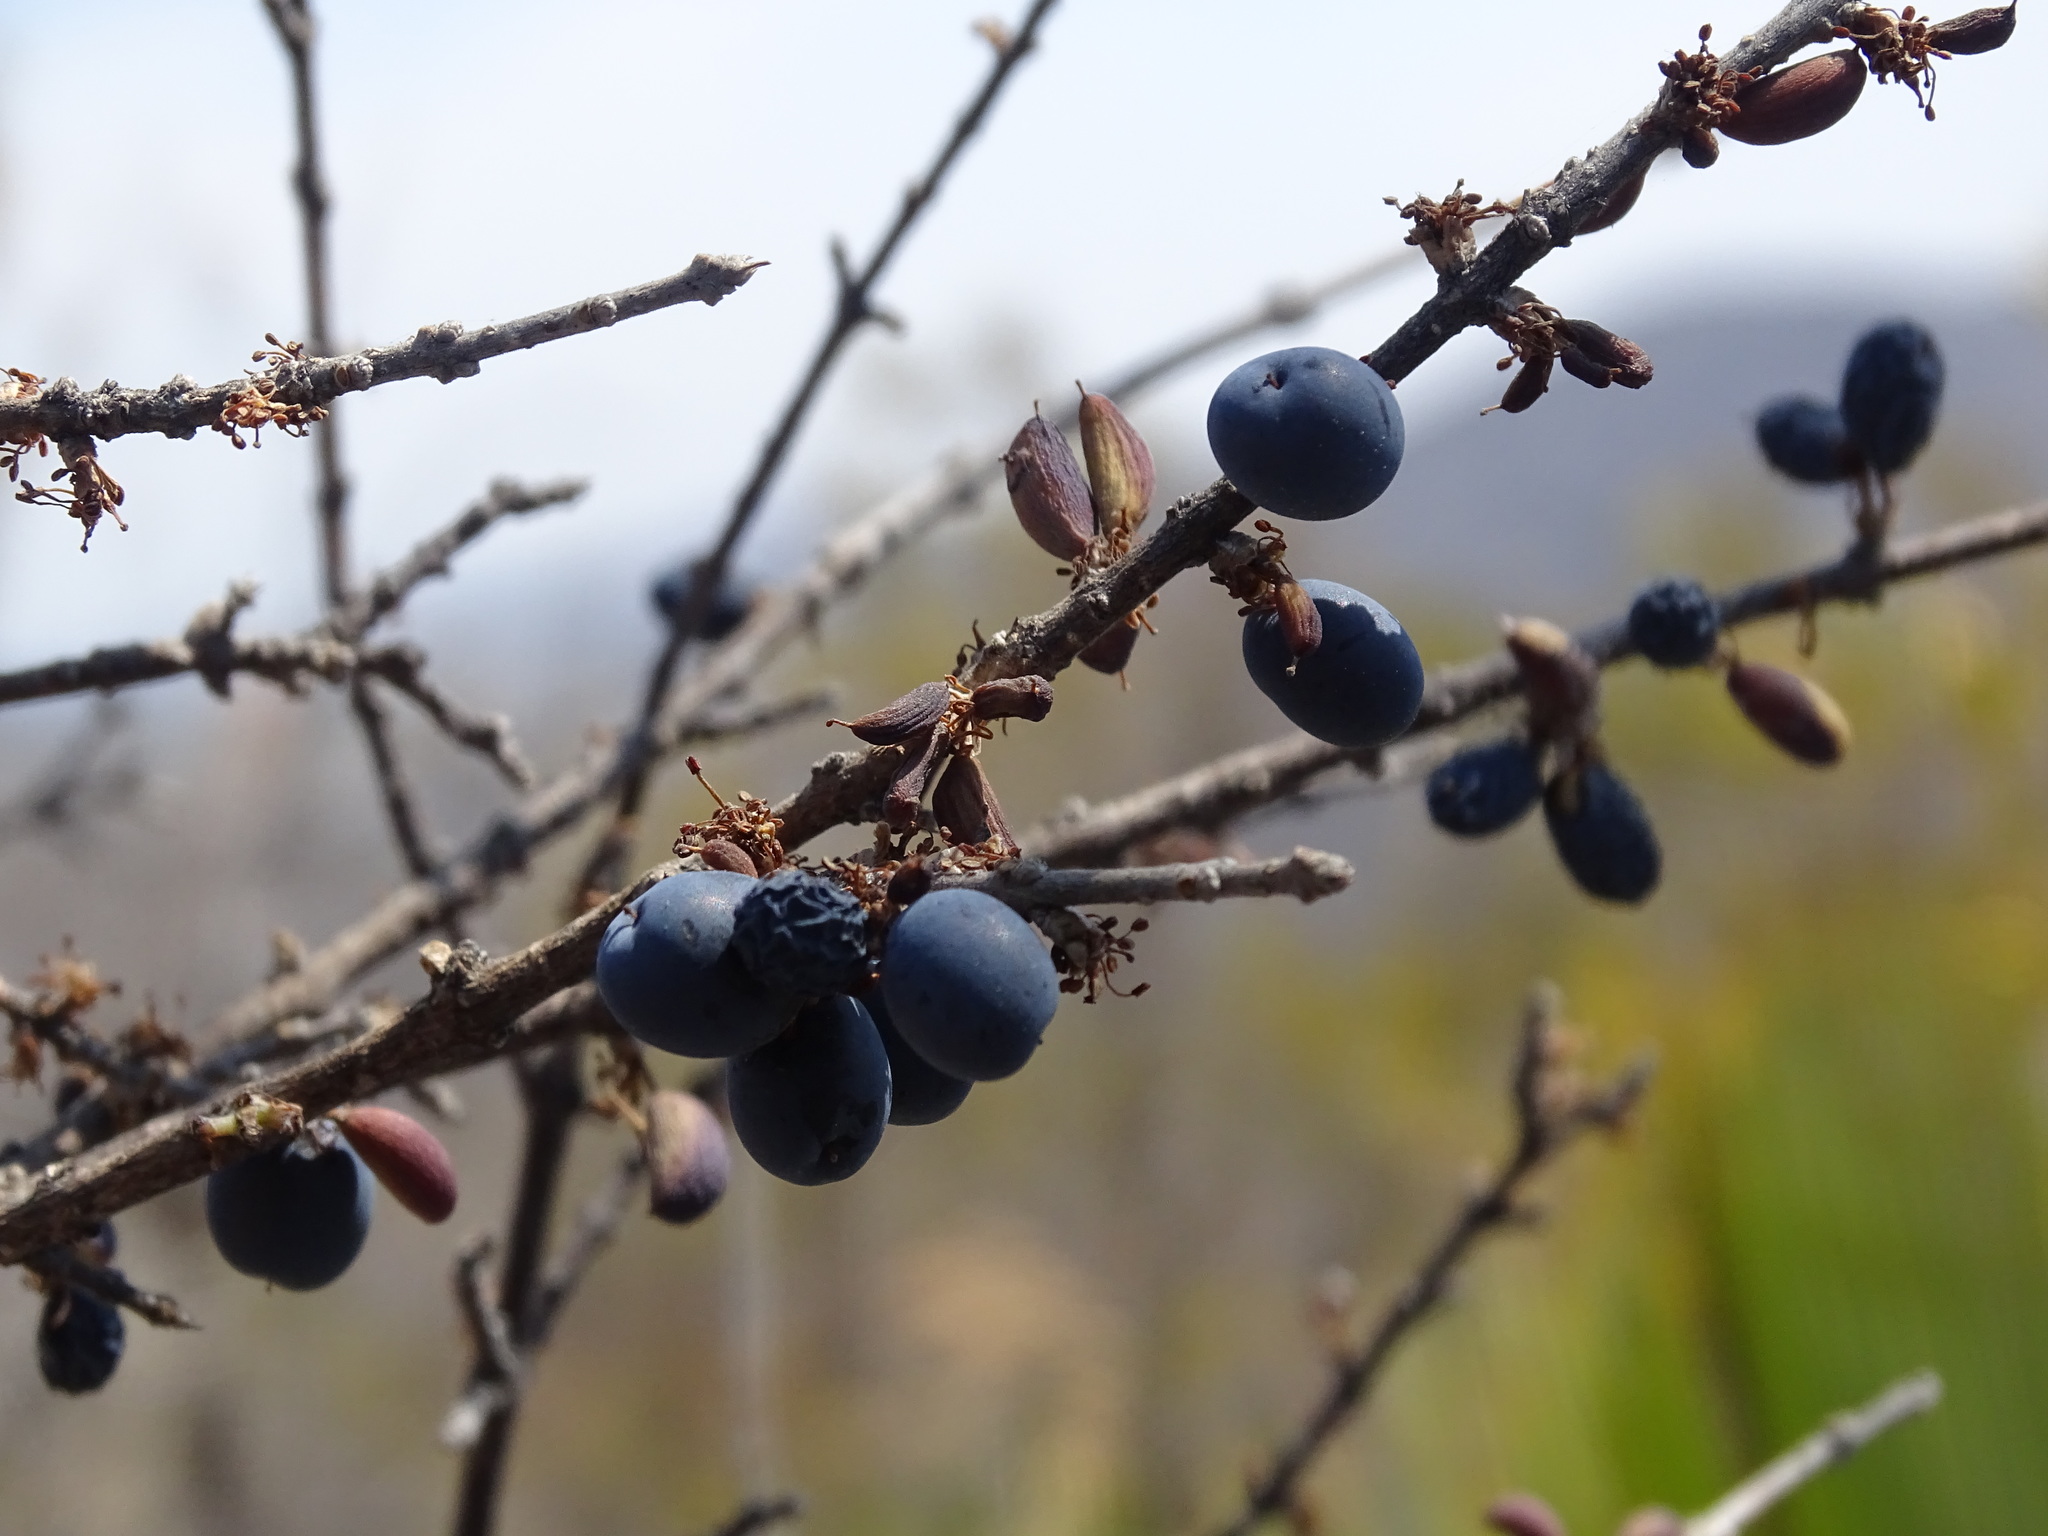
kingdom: Plantae
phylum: Tracheophyta
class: Magnoliopsida
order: Lamiales
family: Oleaceae
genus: Forestiera
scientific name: Forestiera rotundifolia
